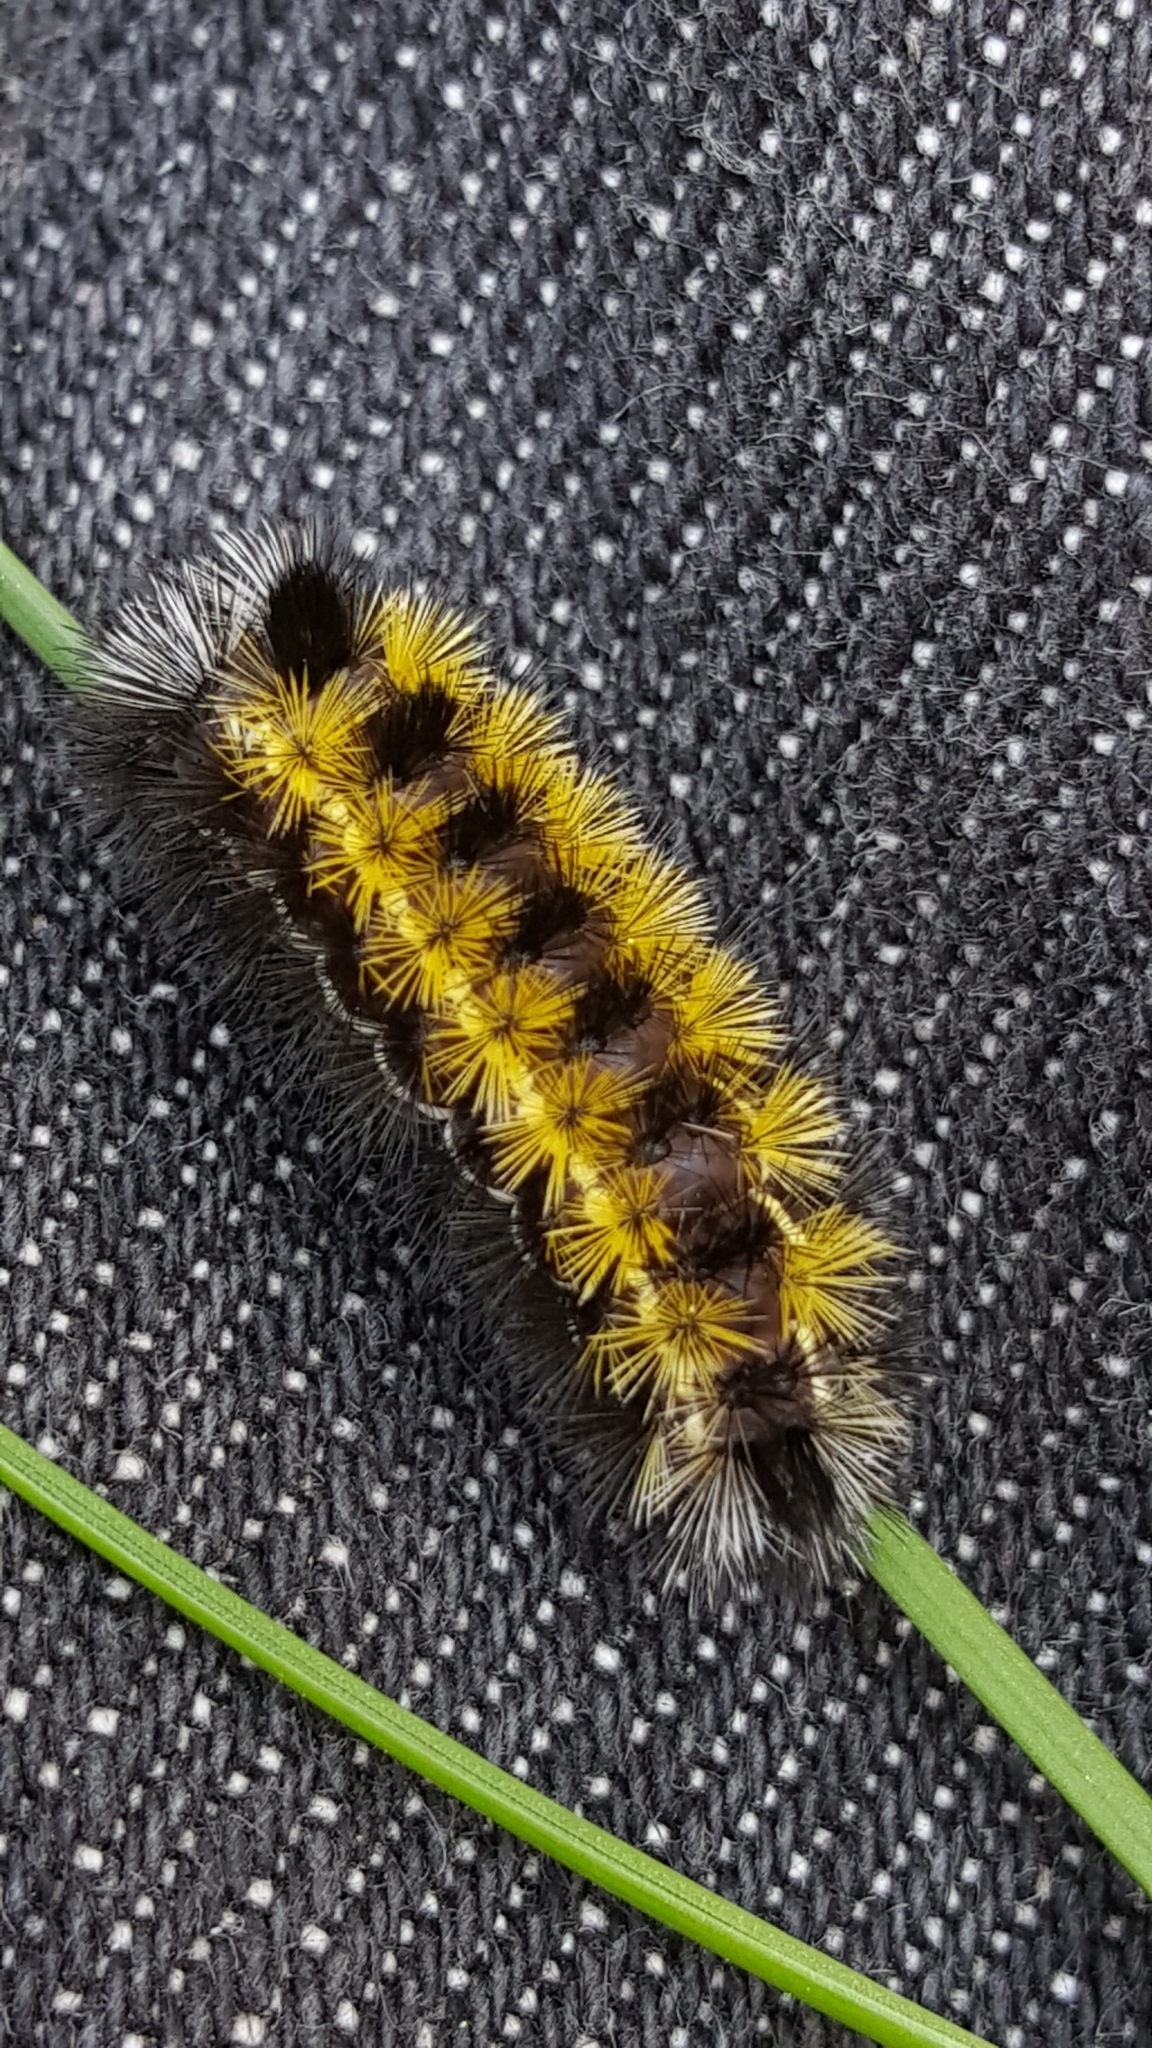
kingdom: Animalia
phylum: Arthropoda
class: Insecta
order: Lepidoptera
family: Erebidae
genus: Ctenucha
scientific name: Ctenucha virginica
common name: Virginia ctenucha moth
